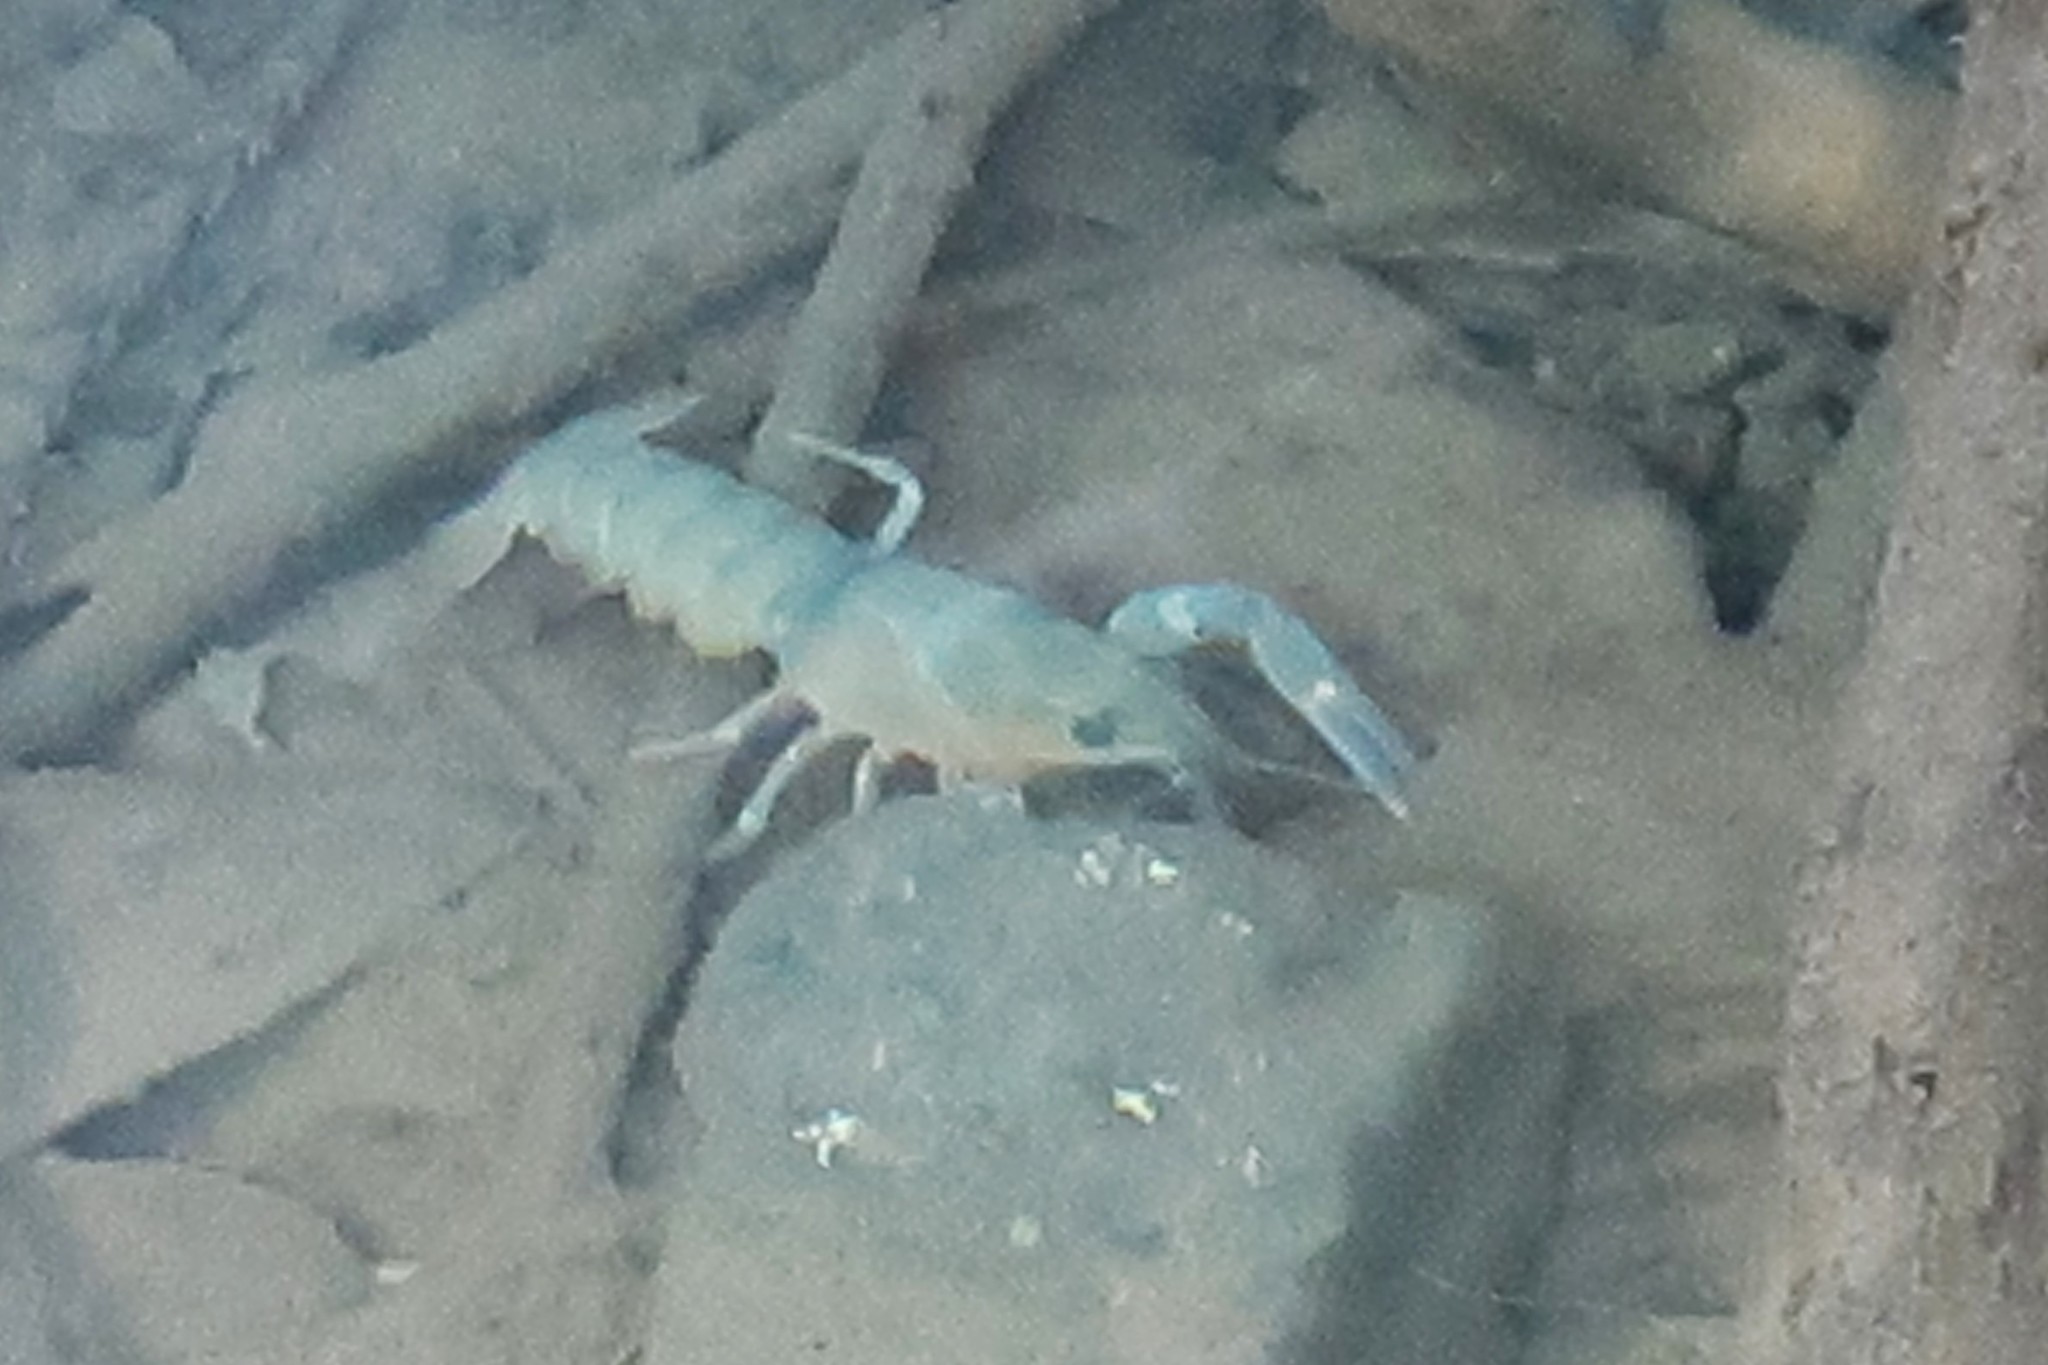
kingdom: Animalia
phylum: Arthropoda
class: Malacostraca
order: Decapoda
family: Astacidae
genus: Pacifastacus
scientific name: Pacifastacus leniusculus
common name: Signal crayfish
